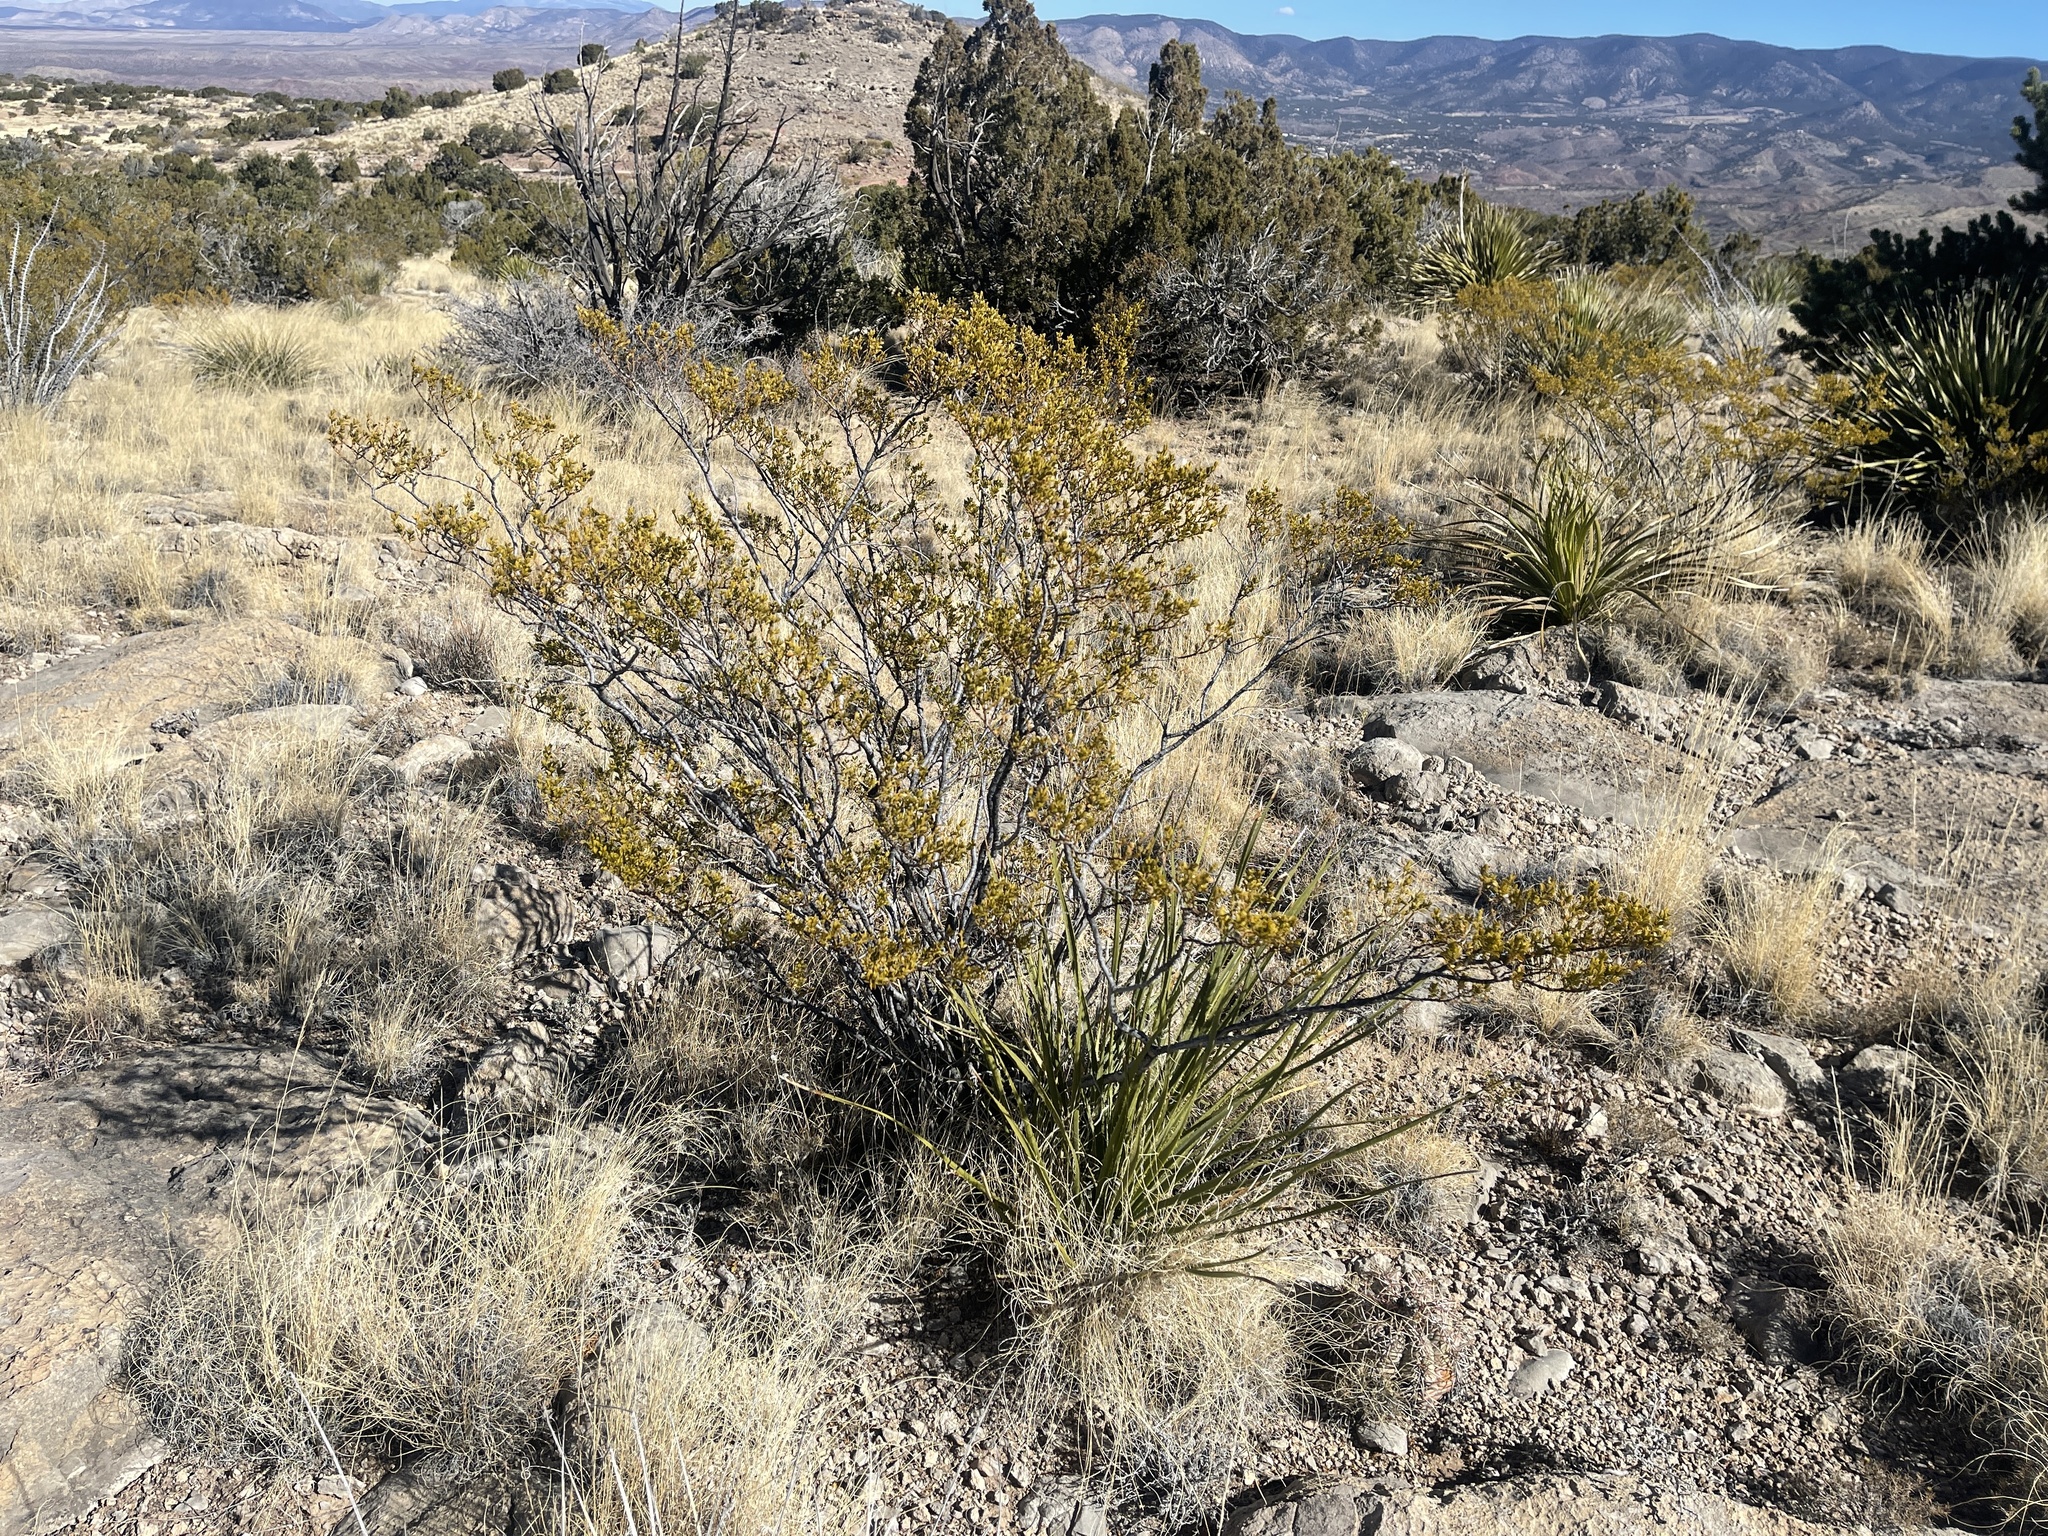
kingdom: Plantae
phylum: Tracheophyta
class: Magnoliopsida
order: Zygophyllales
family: Zygophyllaceae
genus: Larrea
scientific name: Larrea tridentata
